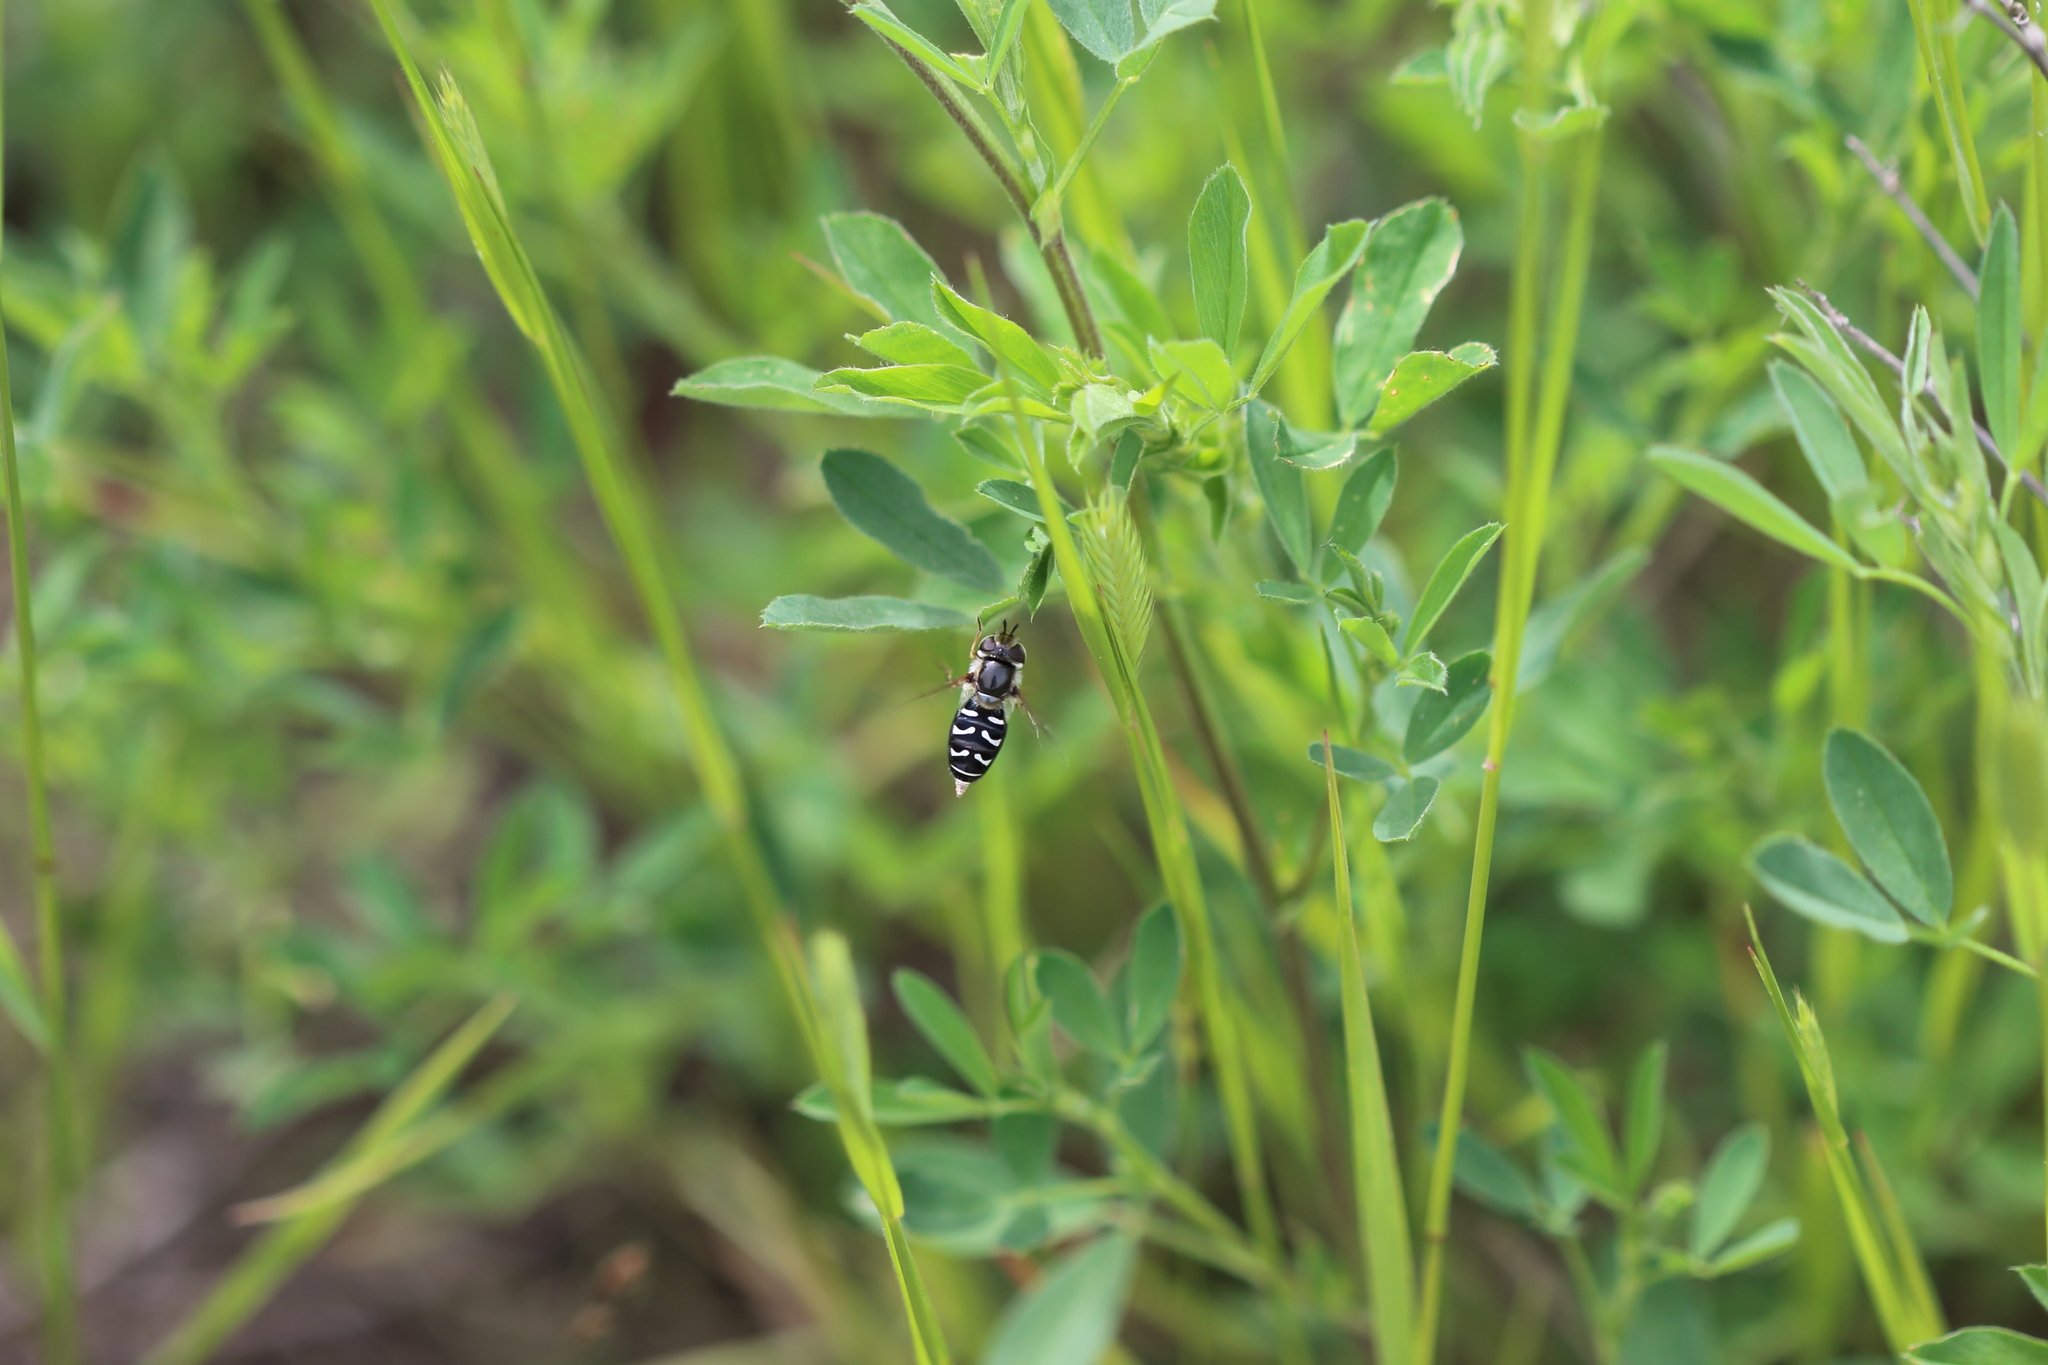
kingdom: Animalia
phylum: Arthropoda
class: Insecta
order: Diptera
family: Syrphidae
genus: Scaeva
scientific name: Scaeva affinis
